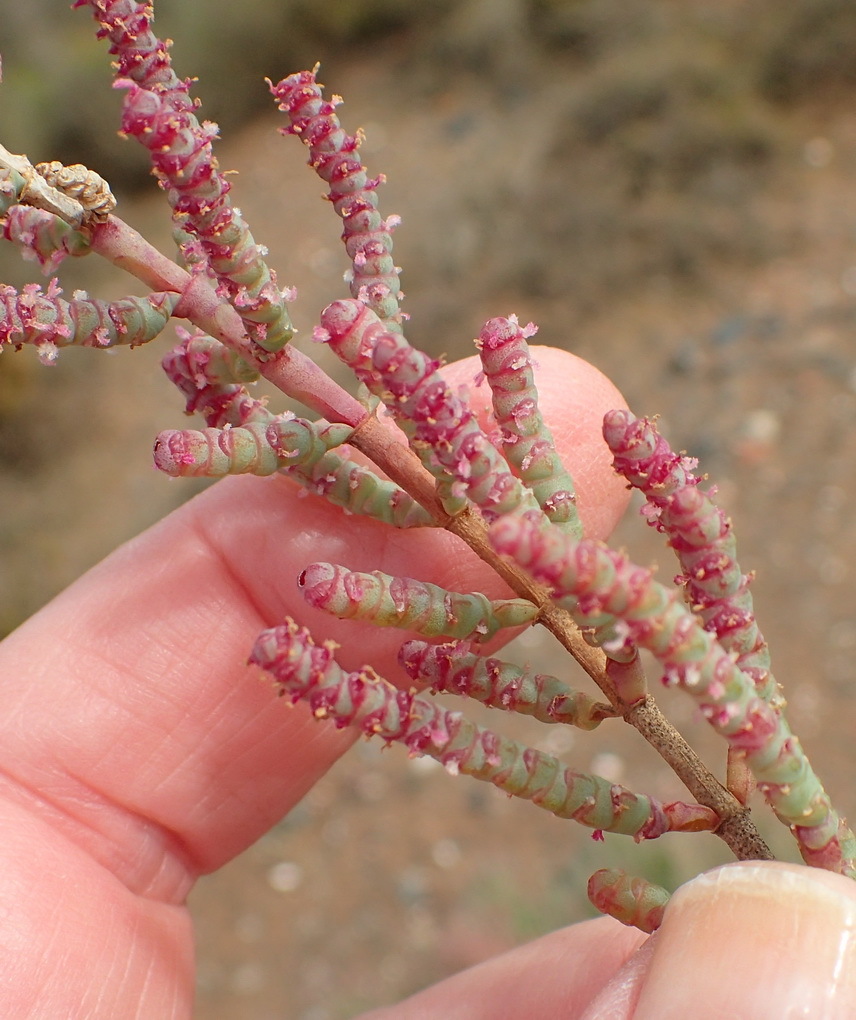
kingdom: Plantae
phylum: Tracheophyta
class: Magnoliopsida
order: Caryophyllales
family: Amaranthaceae
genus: Salicornia
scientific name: Salicornia pillansii
